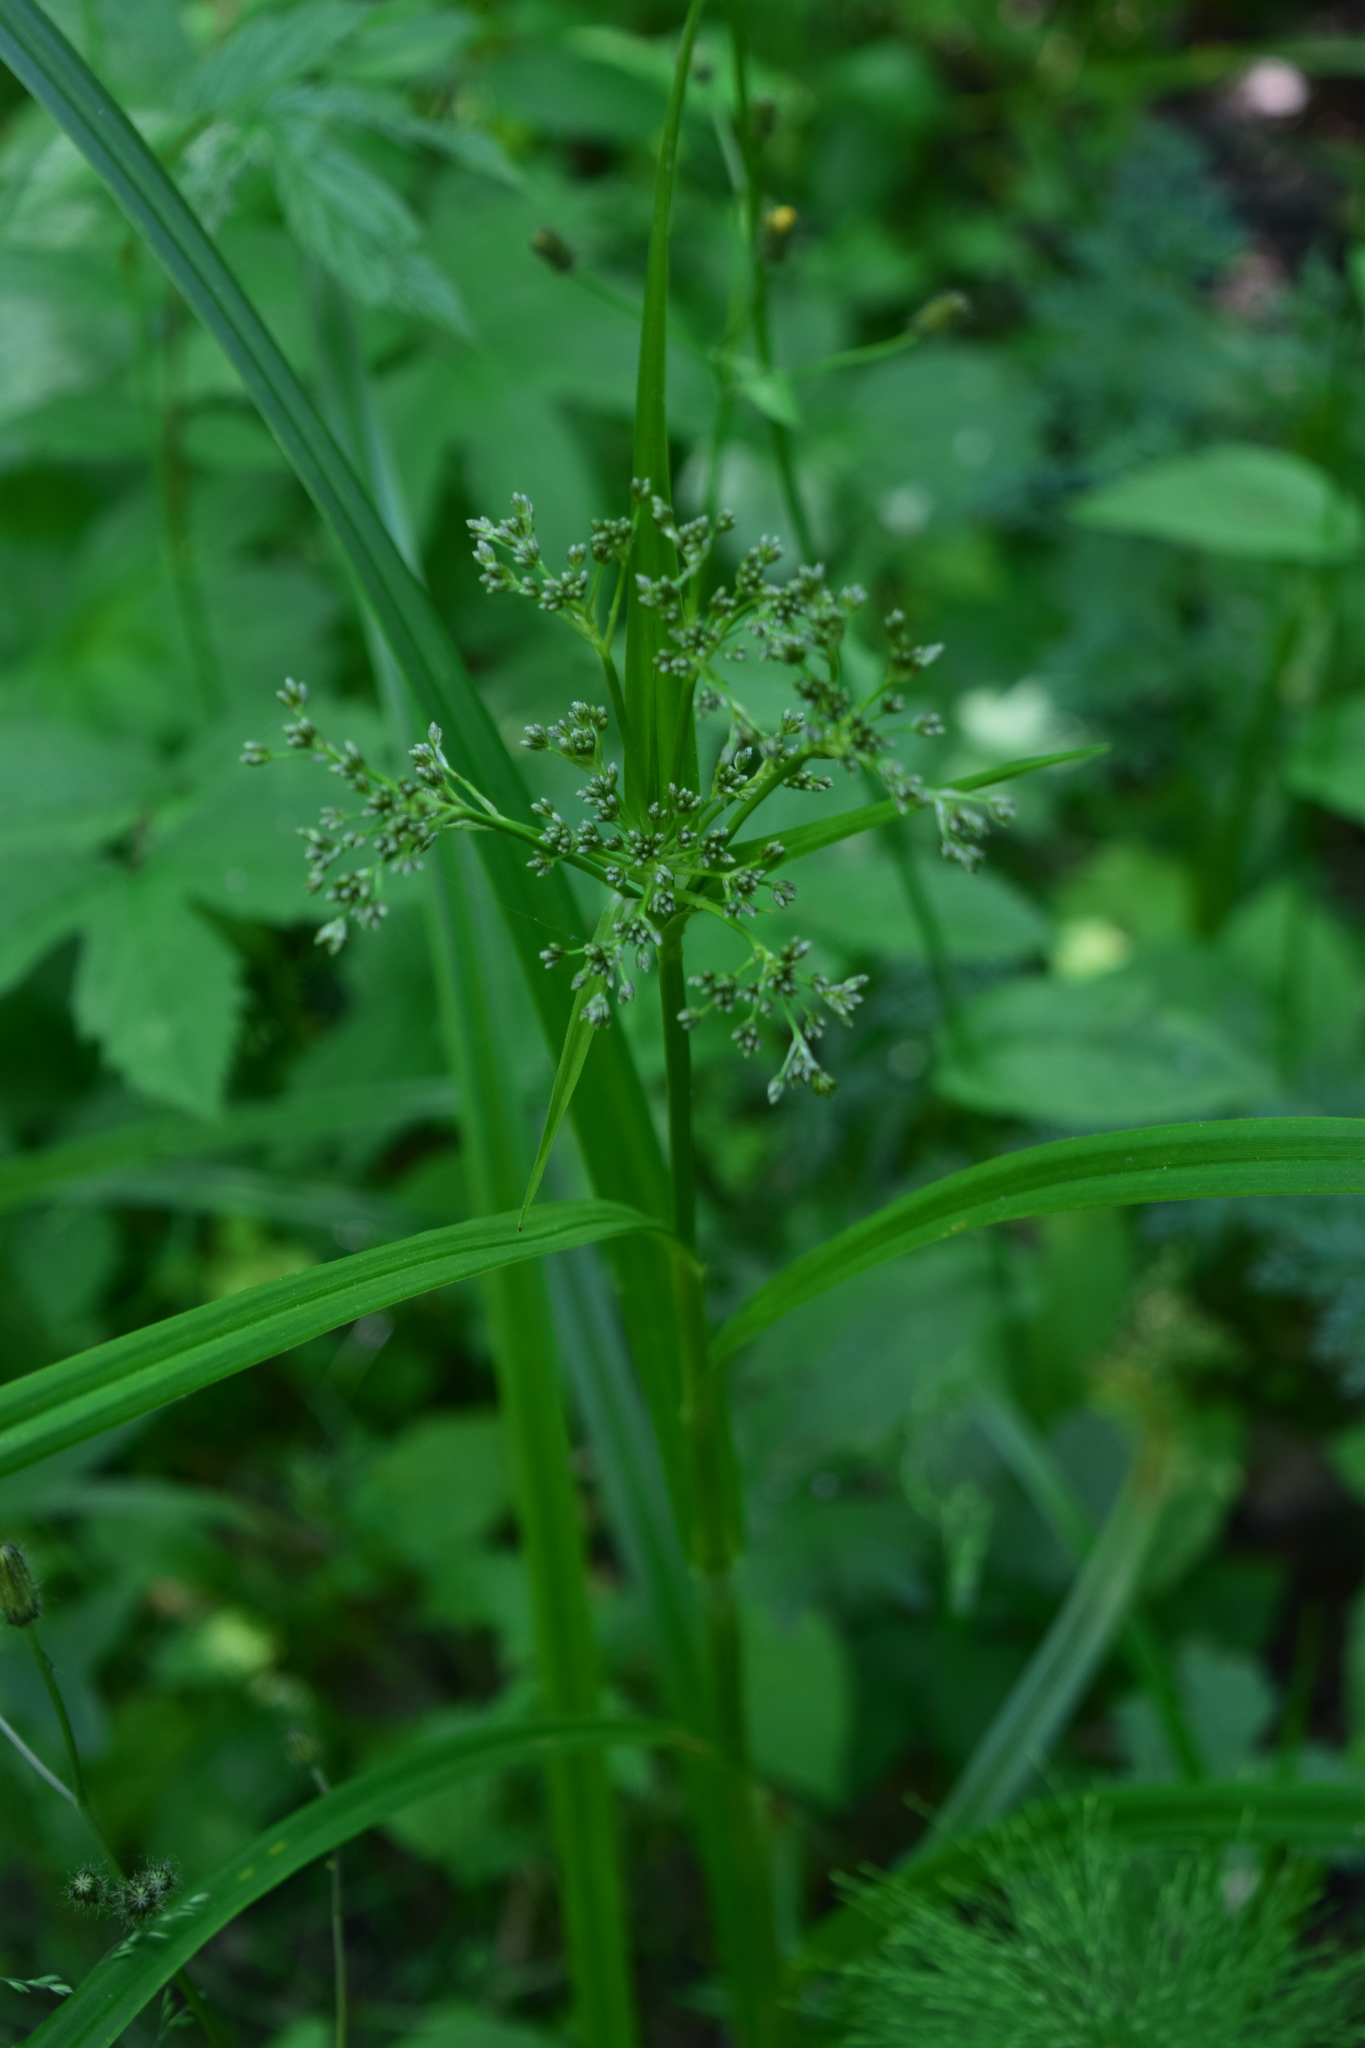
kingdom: Plantae
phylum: Tracheophyta
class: Liliopsida
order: Poales
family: Cyperaceae
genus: Scirpus
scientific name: Scirpus sylvaticus
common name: Wood club-rush
